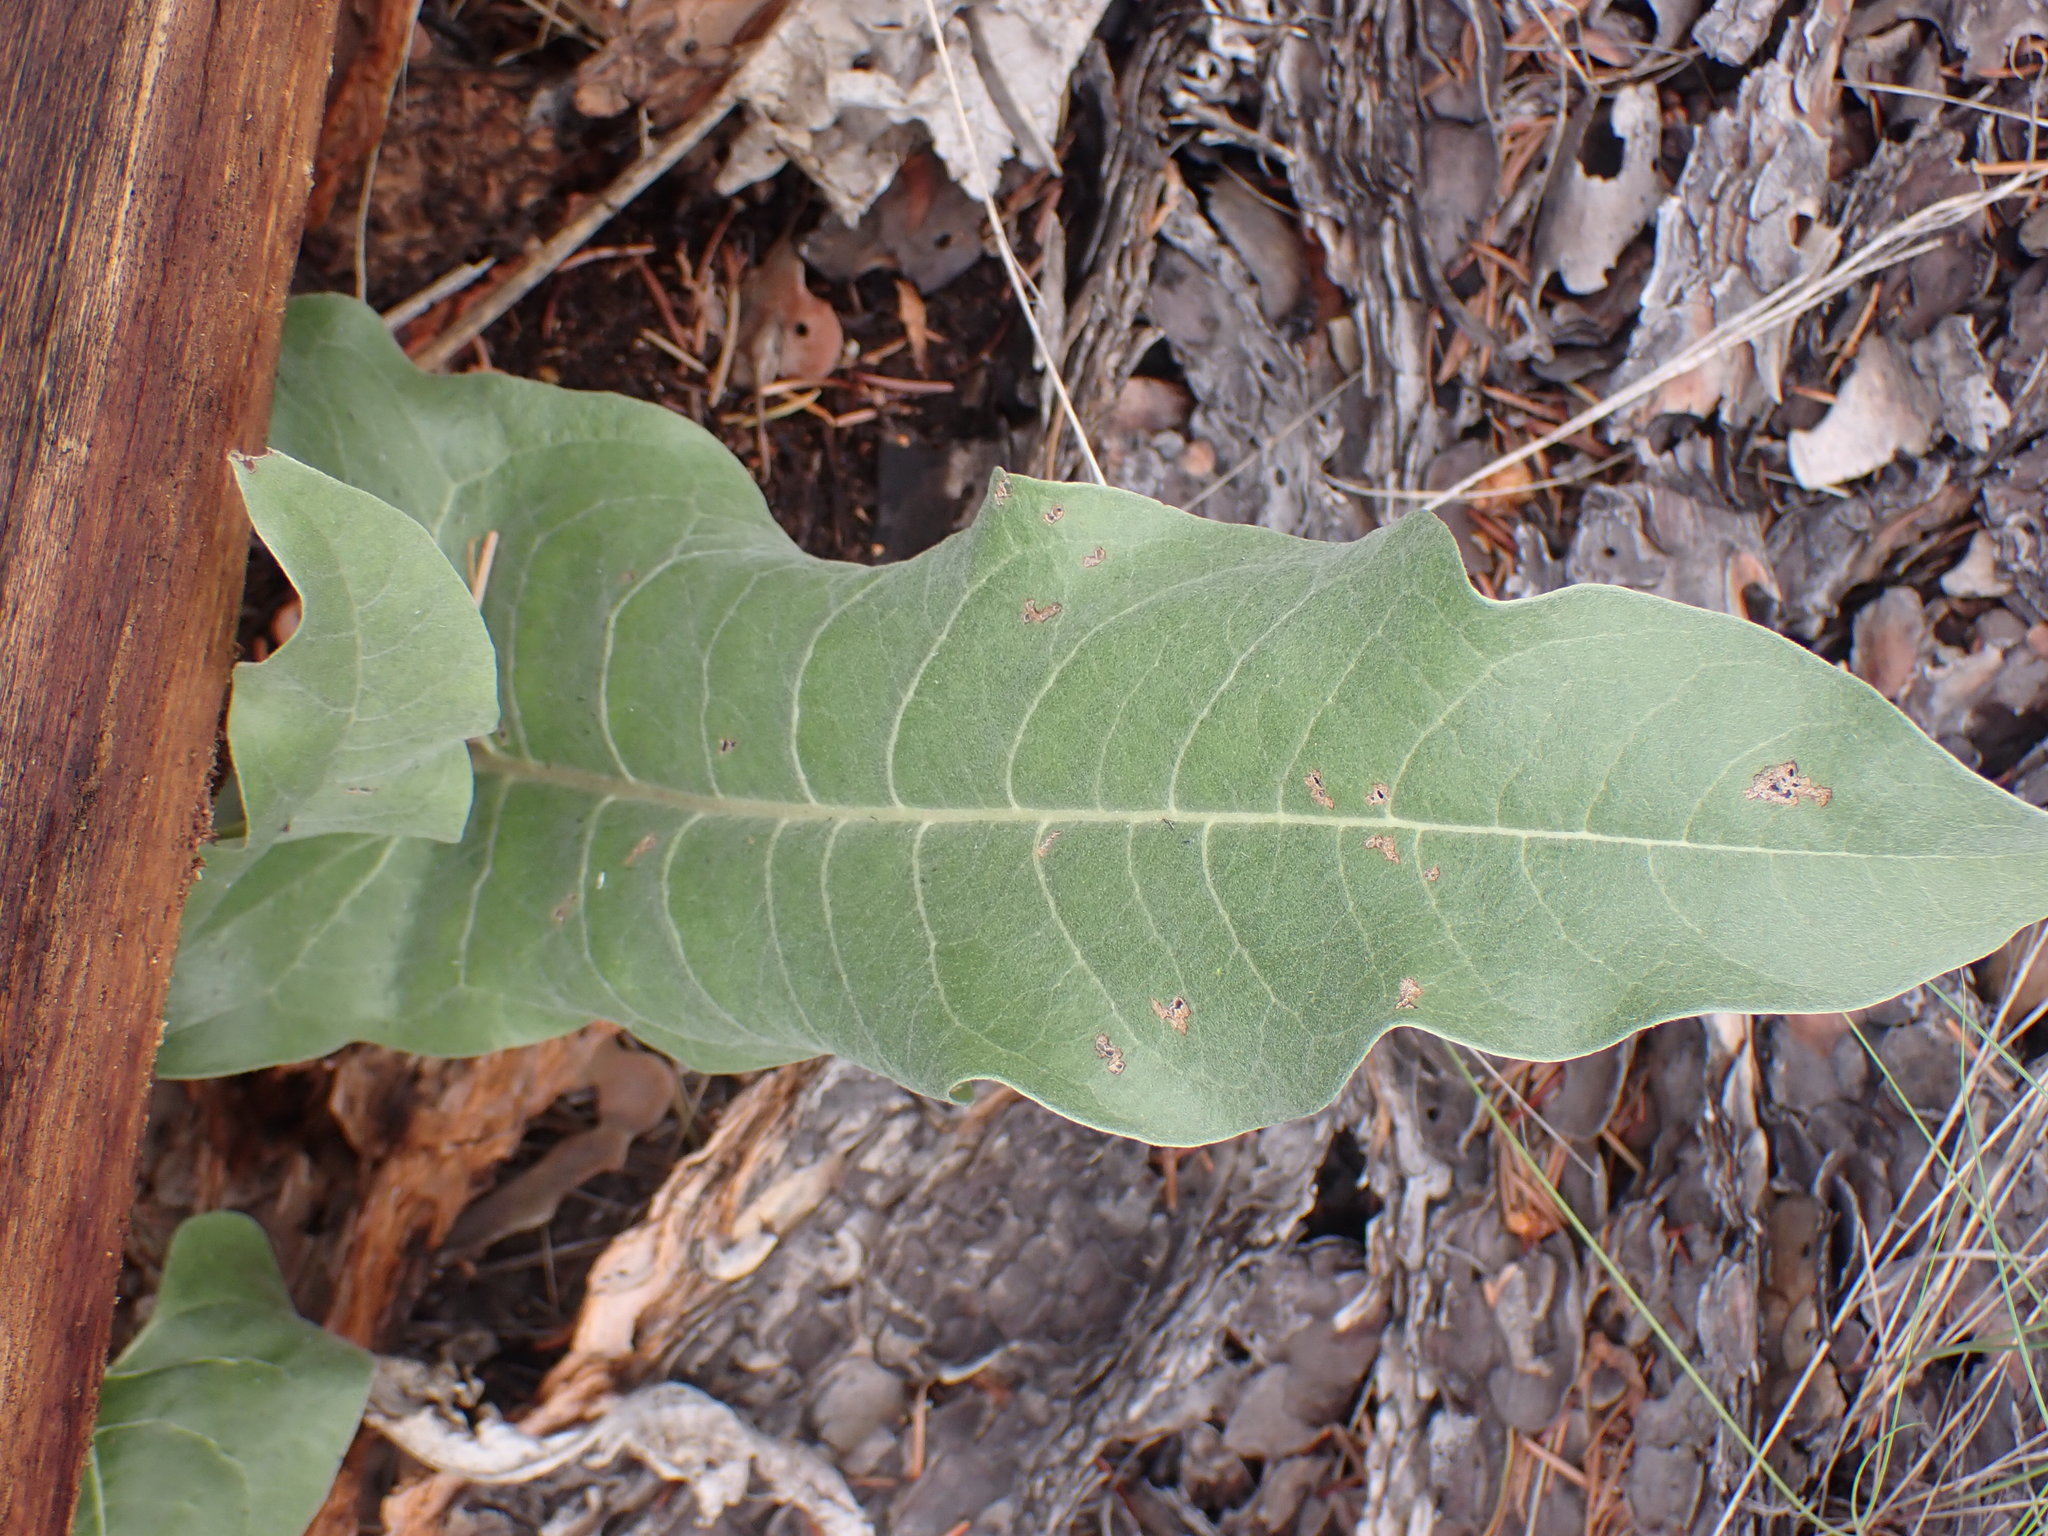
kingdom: Plantae
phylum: Tracheophyta
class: Magnoliopsida
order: Asterales
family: Asteraceae
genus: Wyethia
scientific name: Wyethia sagittata
